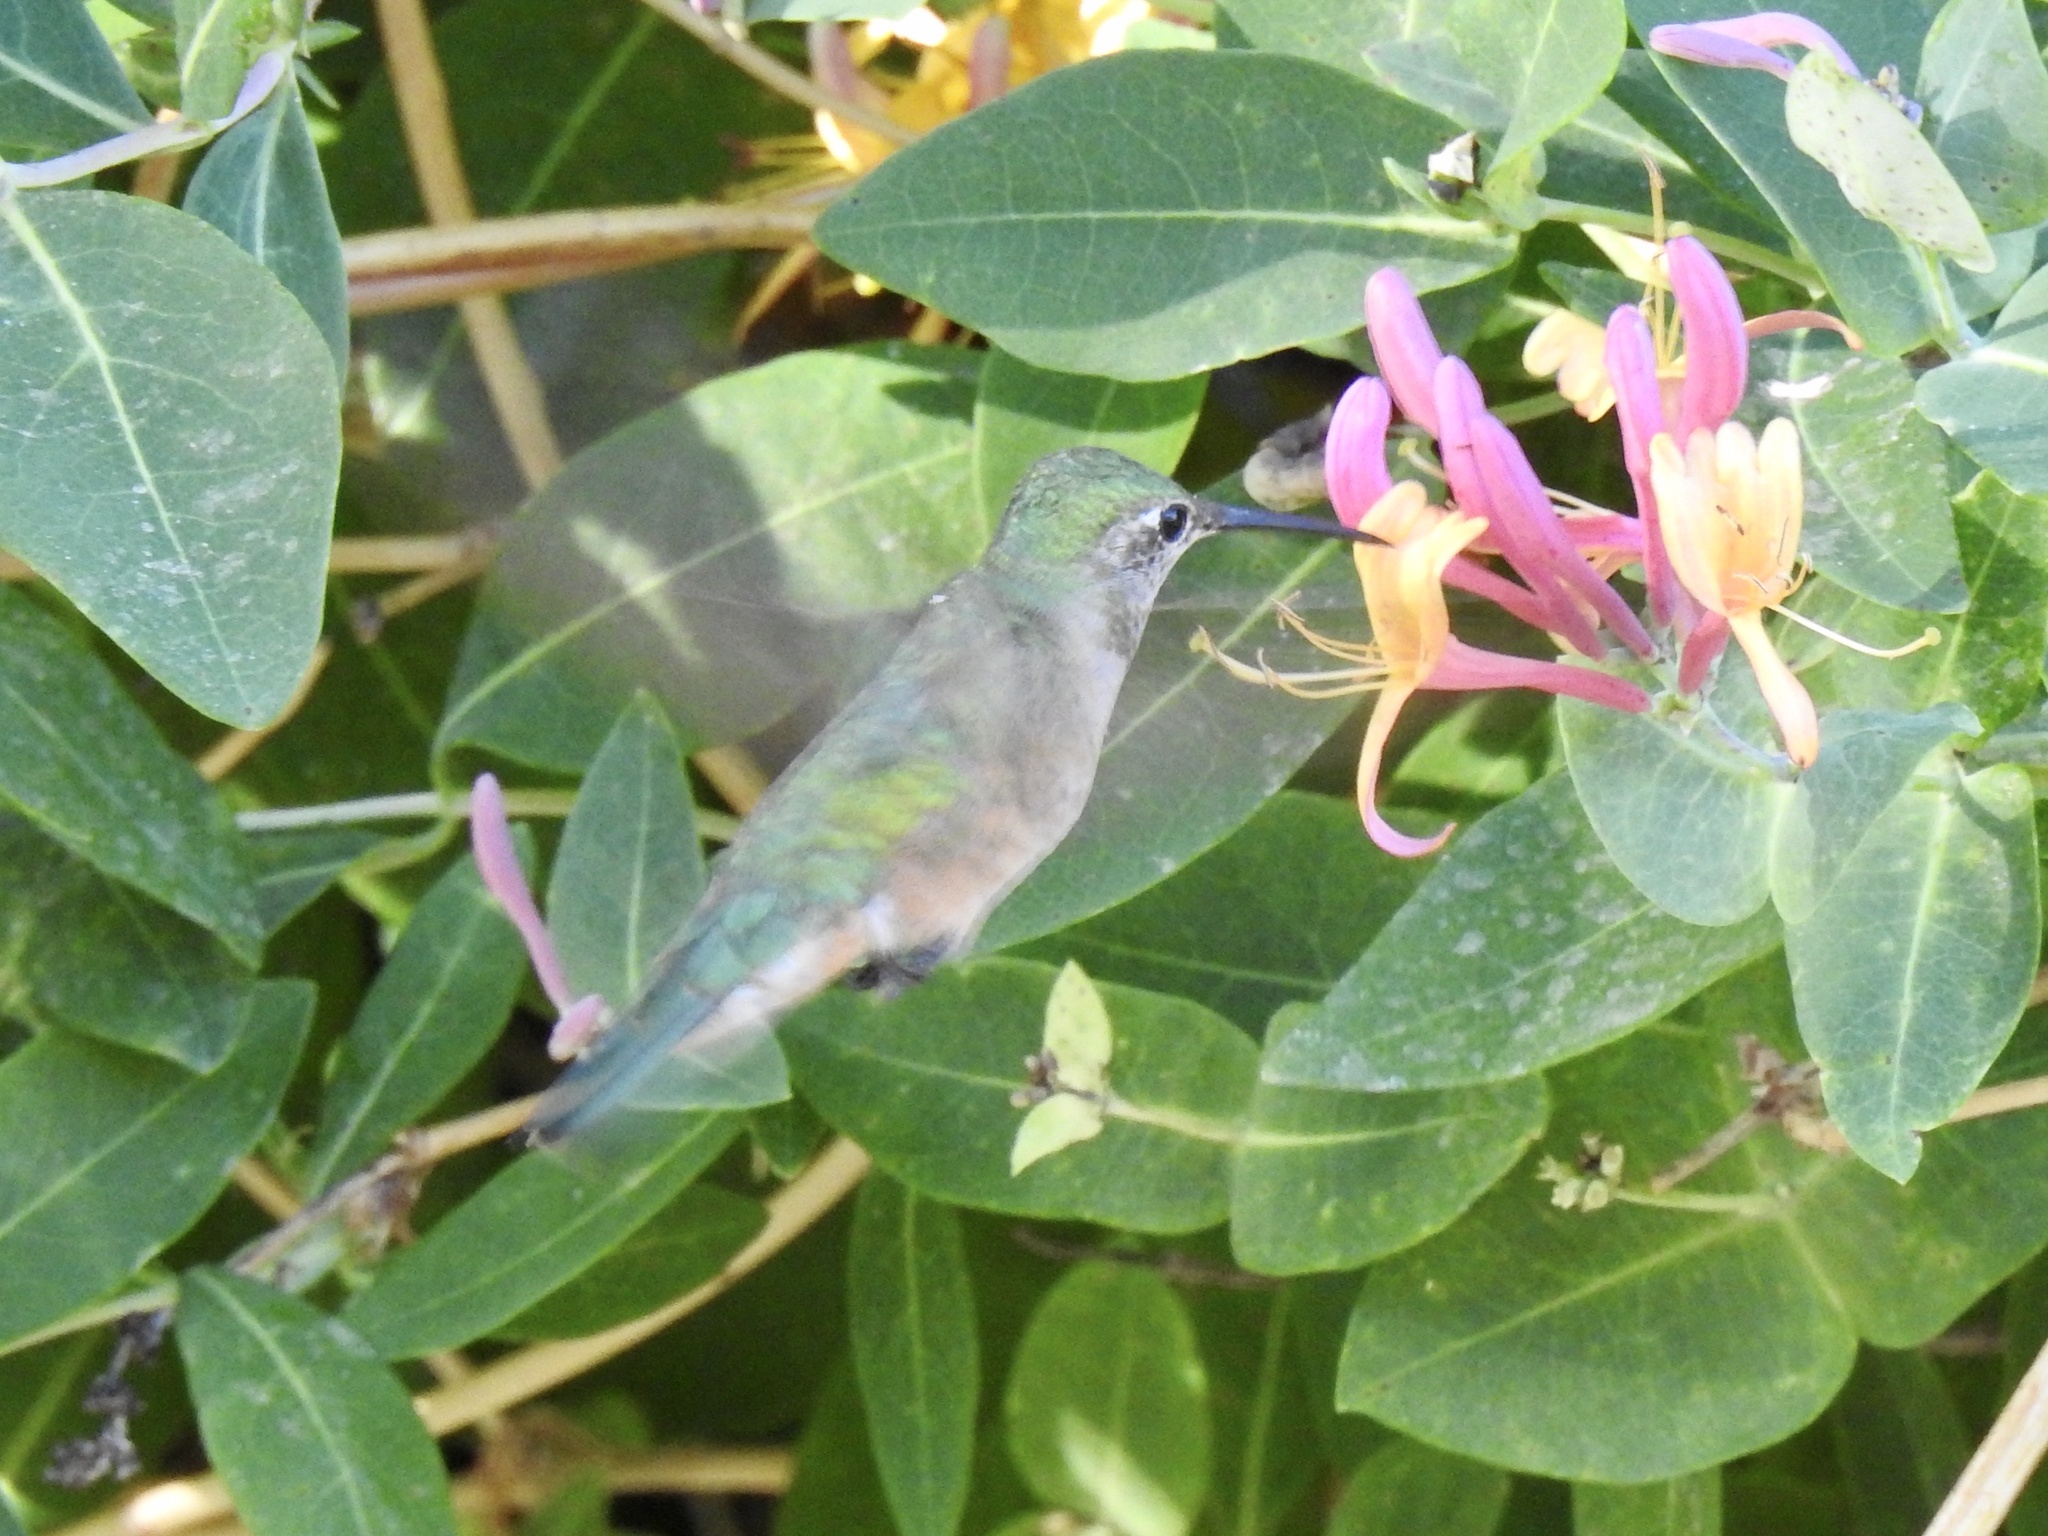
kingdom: Animalia
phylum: Chordata
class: Aves
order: Apodiformes
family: Trochilidae
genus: Selasphorus
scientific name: Selasphorus platycercus
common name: Broad-tailed hummingbird
